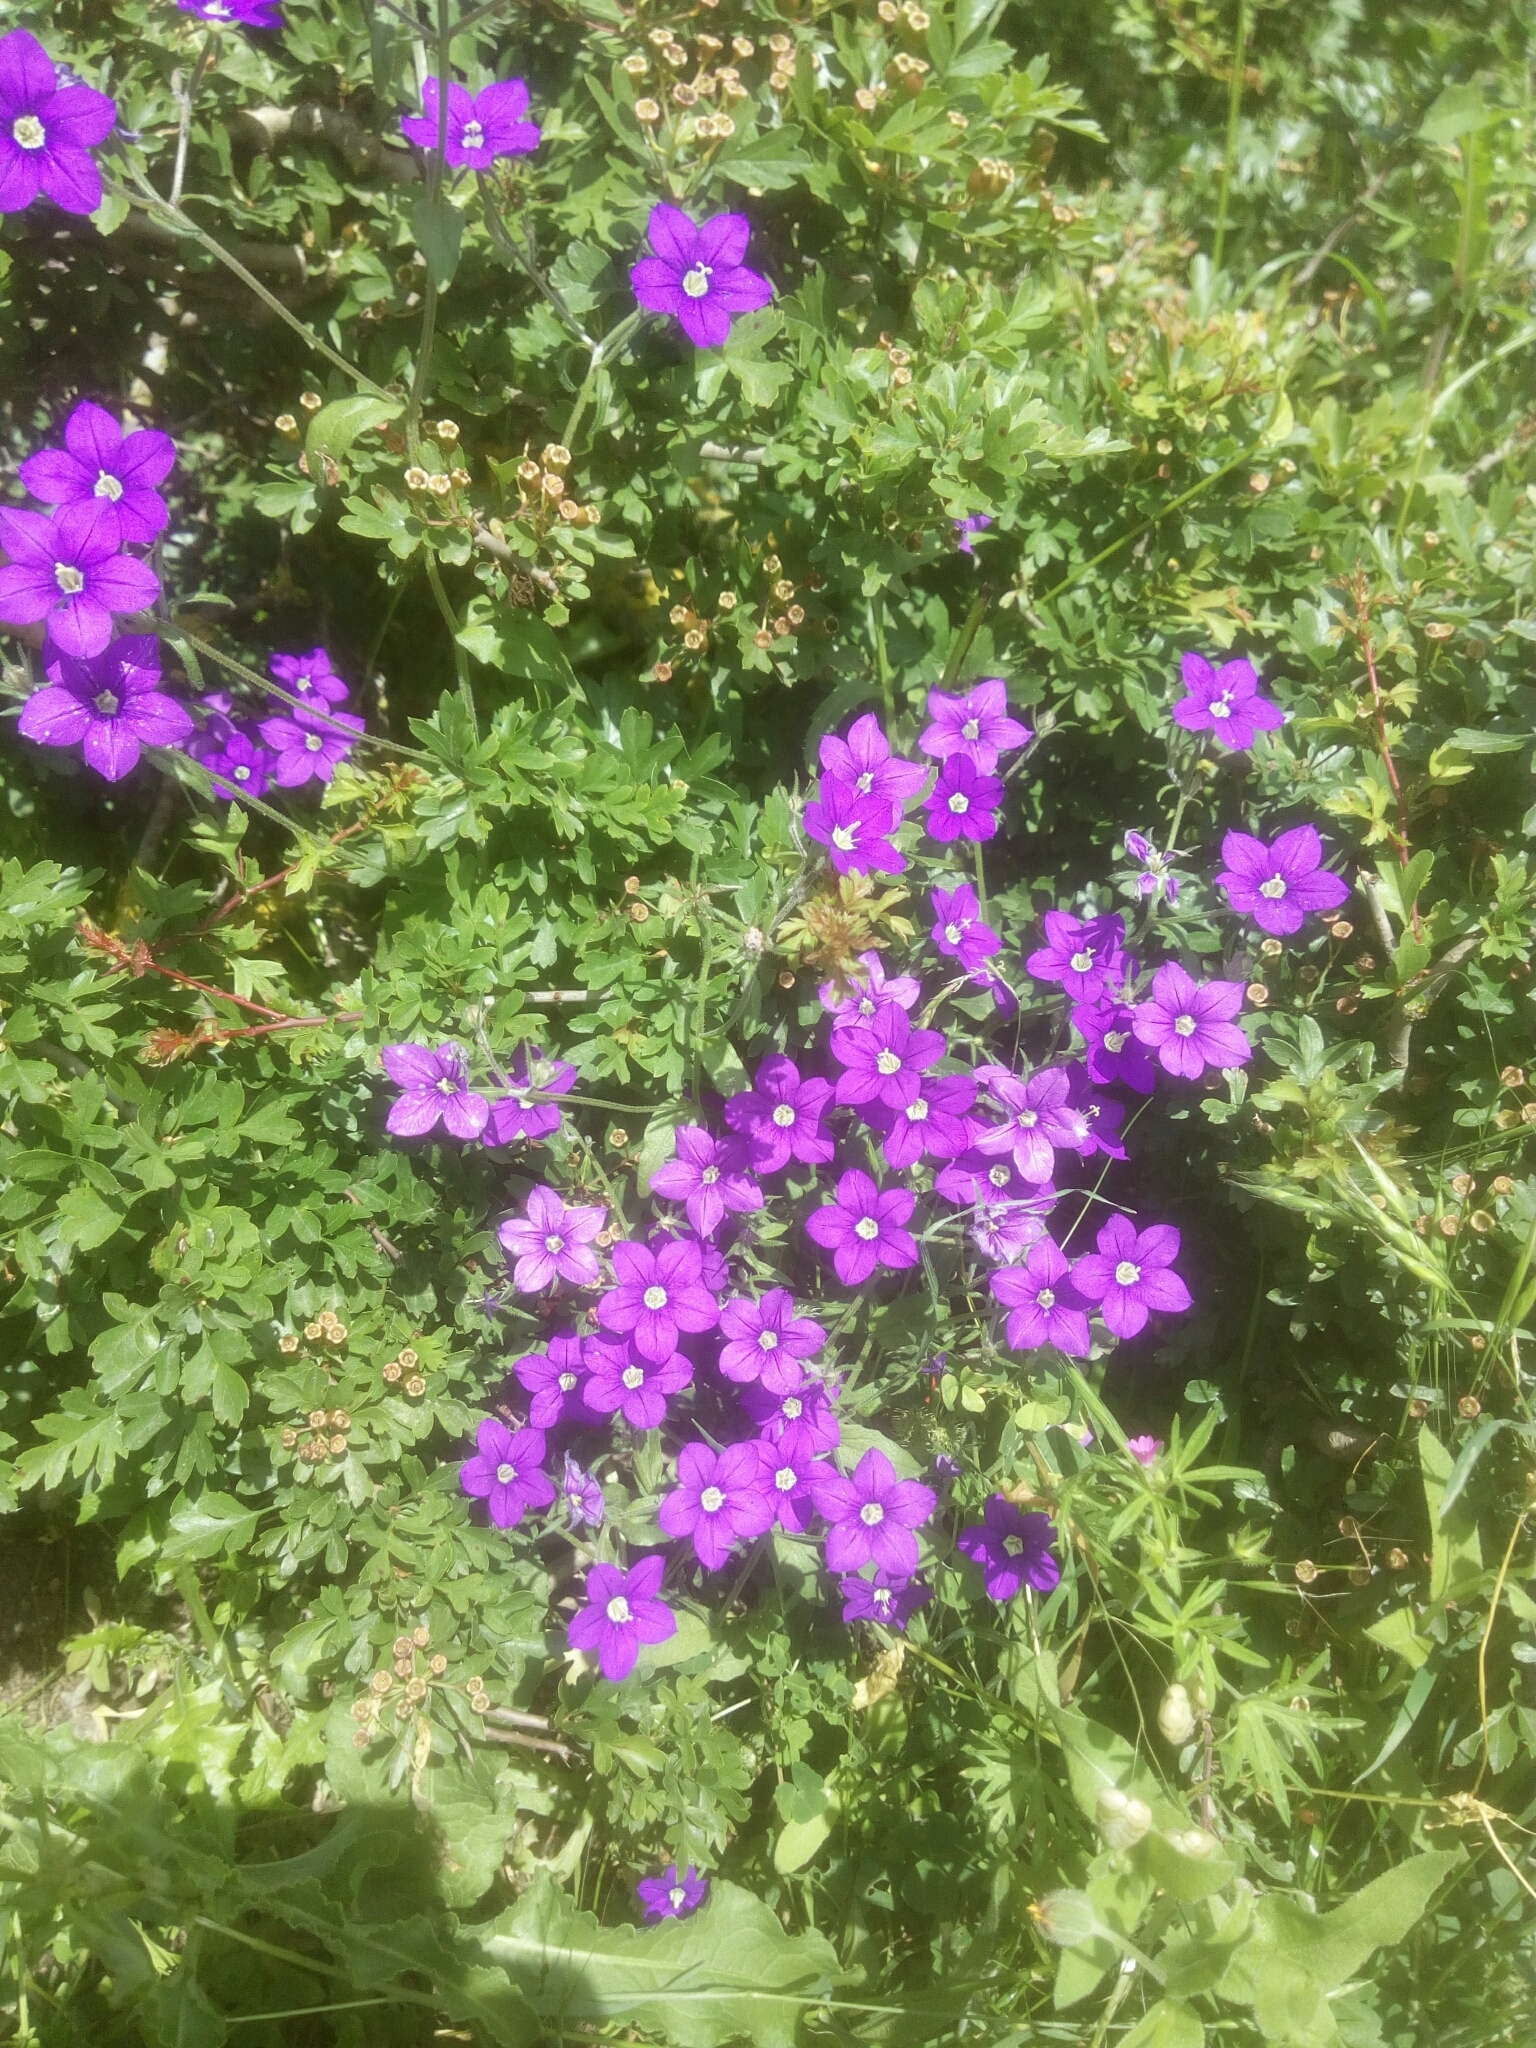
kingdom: Plantae
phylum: Tracheophyta
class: Magnoliopsida
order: Asterales
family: Campanulaceae
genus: Legousia
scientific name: Legousia speculum-veneris
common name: Large venus's-looking-glass
